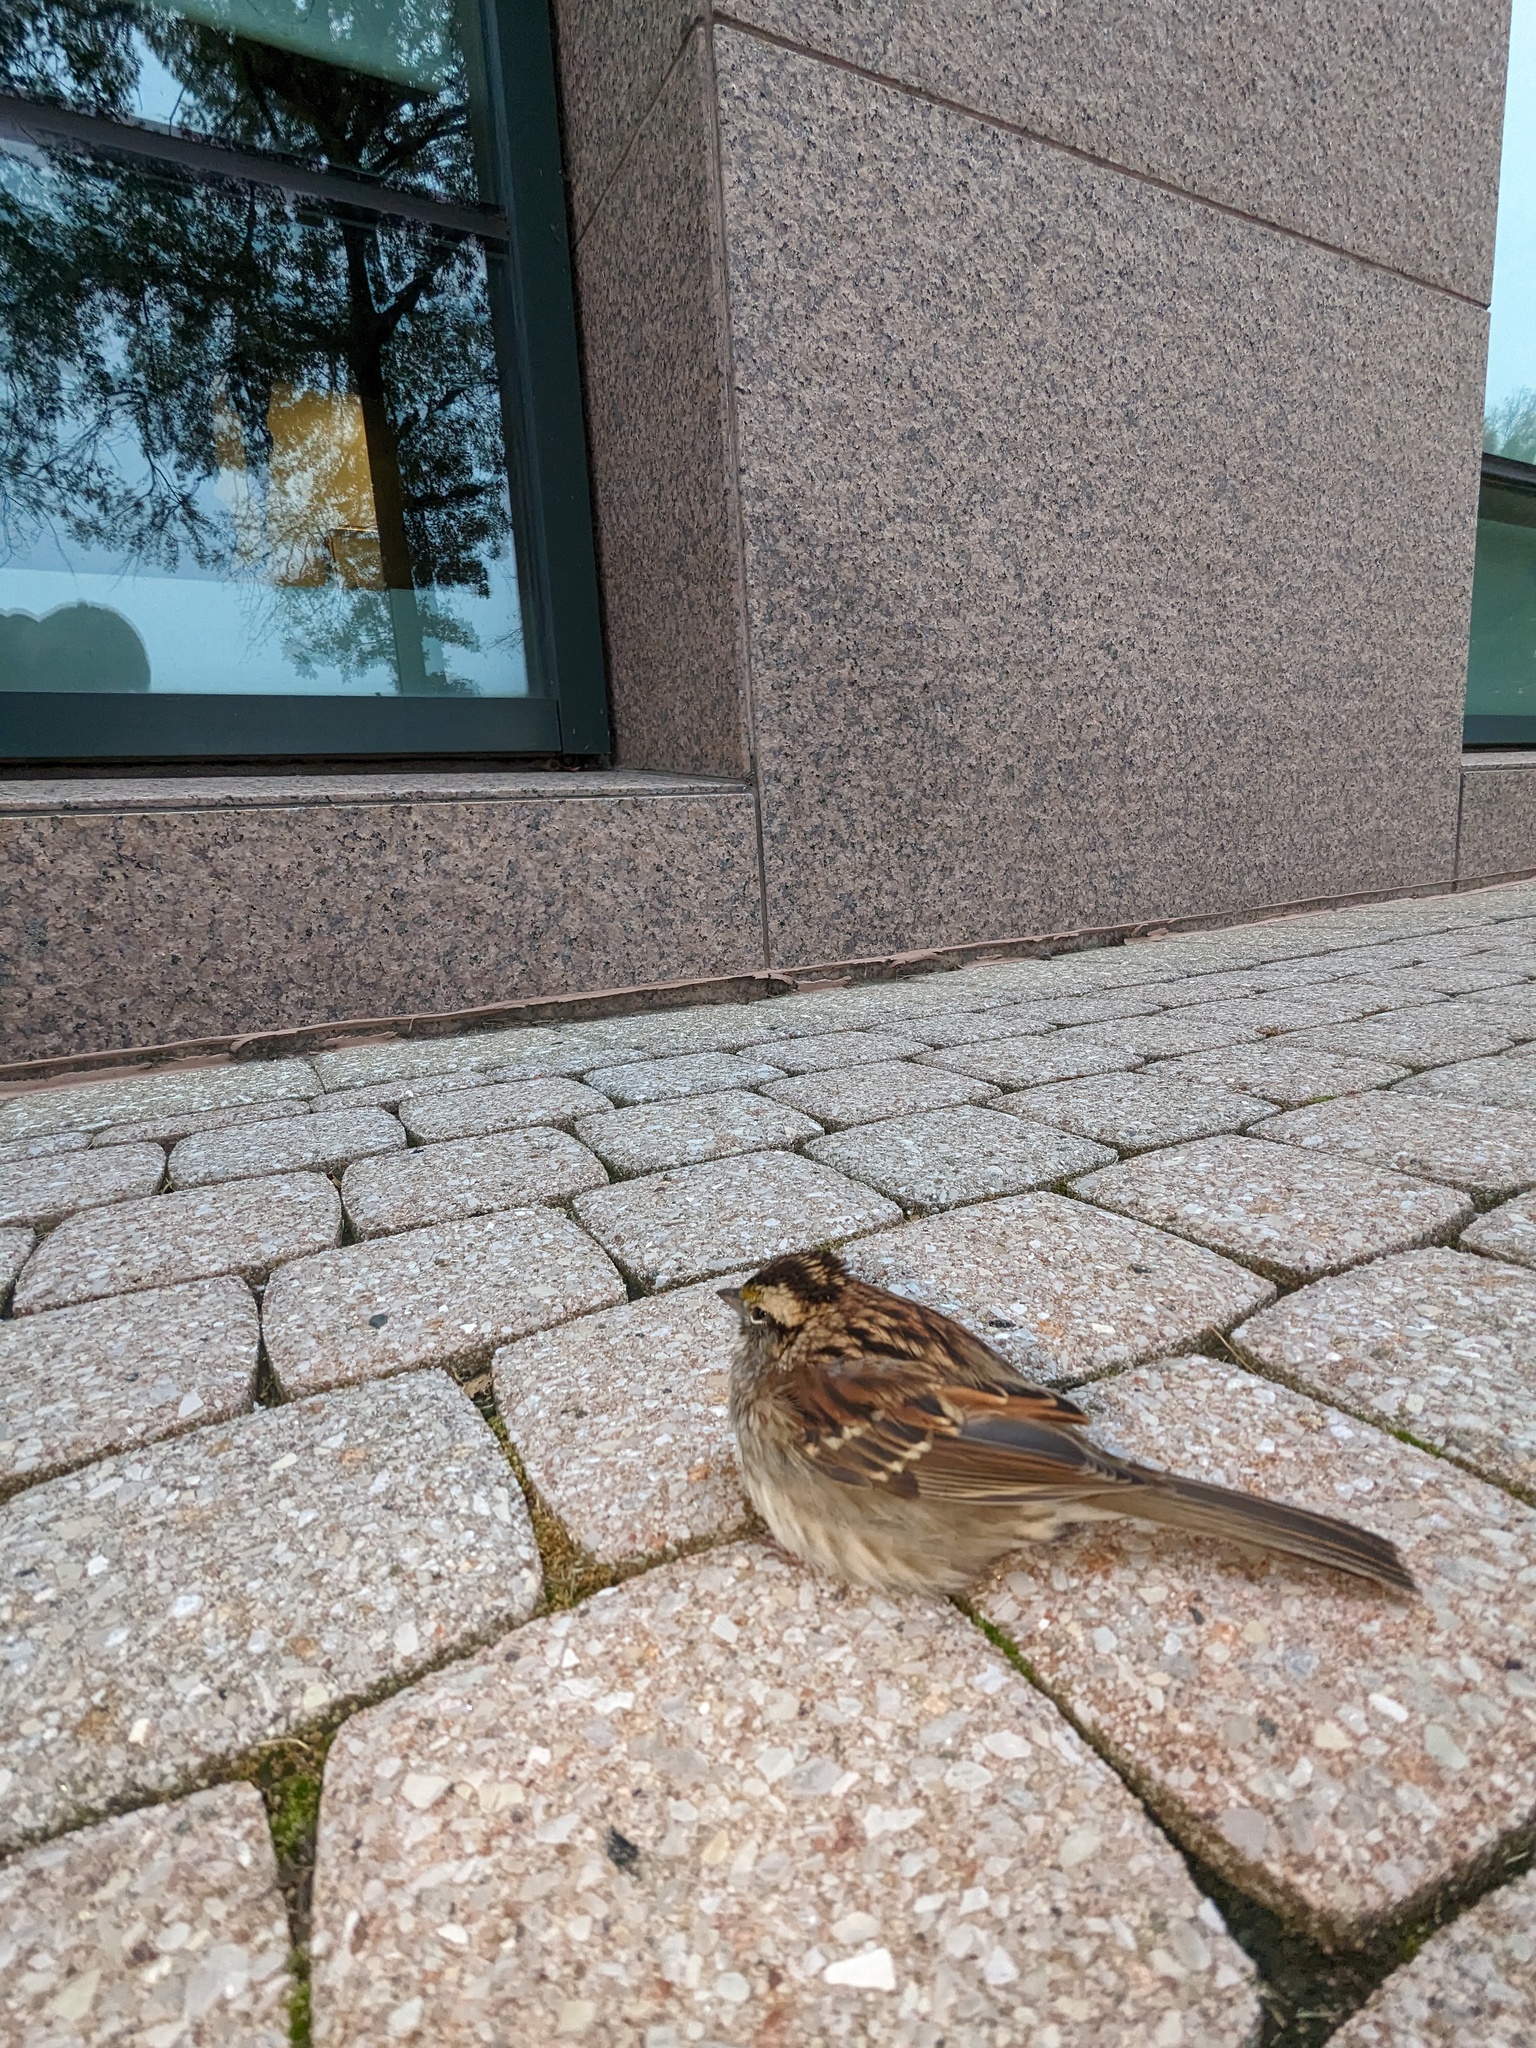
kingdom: Animalia
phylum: Chordata
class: Aves
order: Passeriformes
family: Passerellidae
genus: Zonotrichia
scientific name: Zonotrichia albicollis
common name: White-throated sparrow
